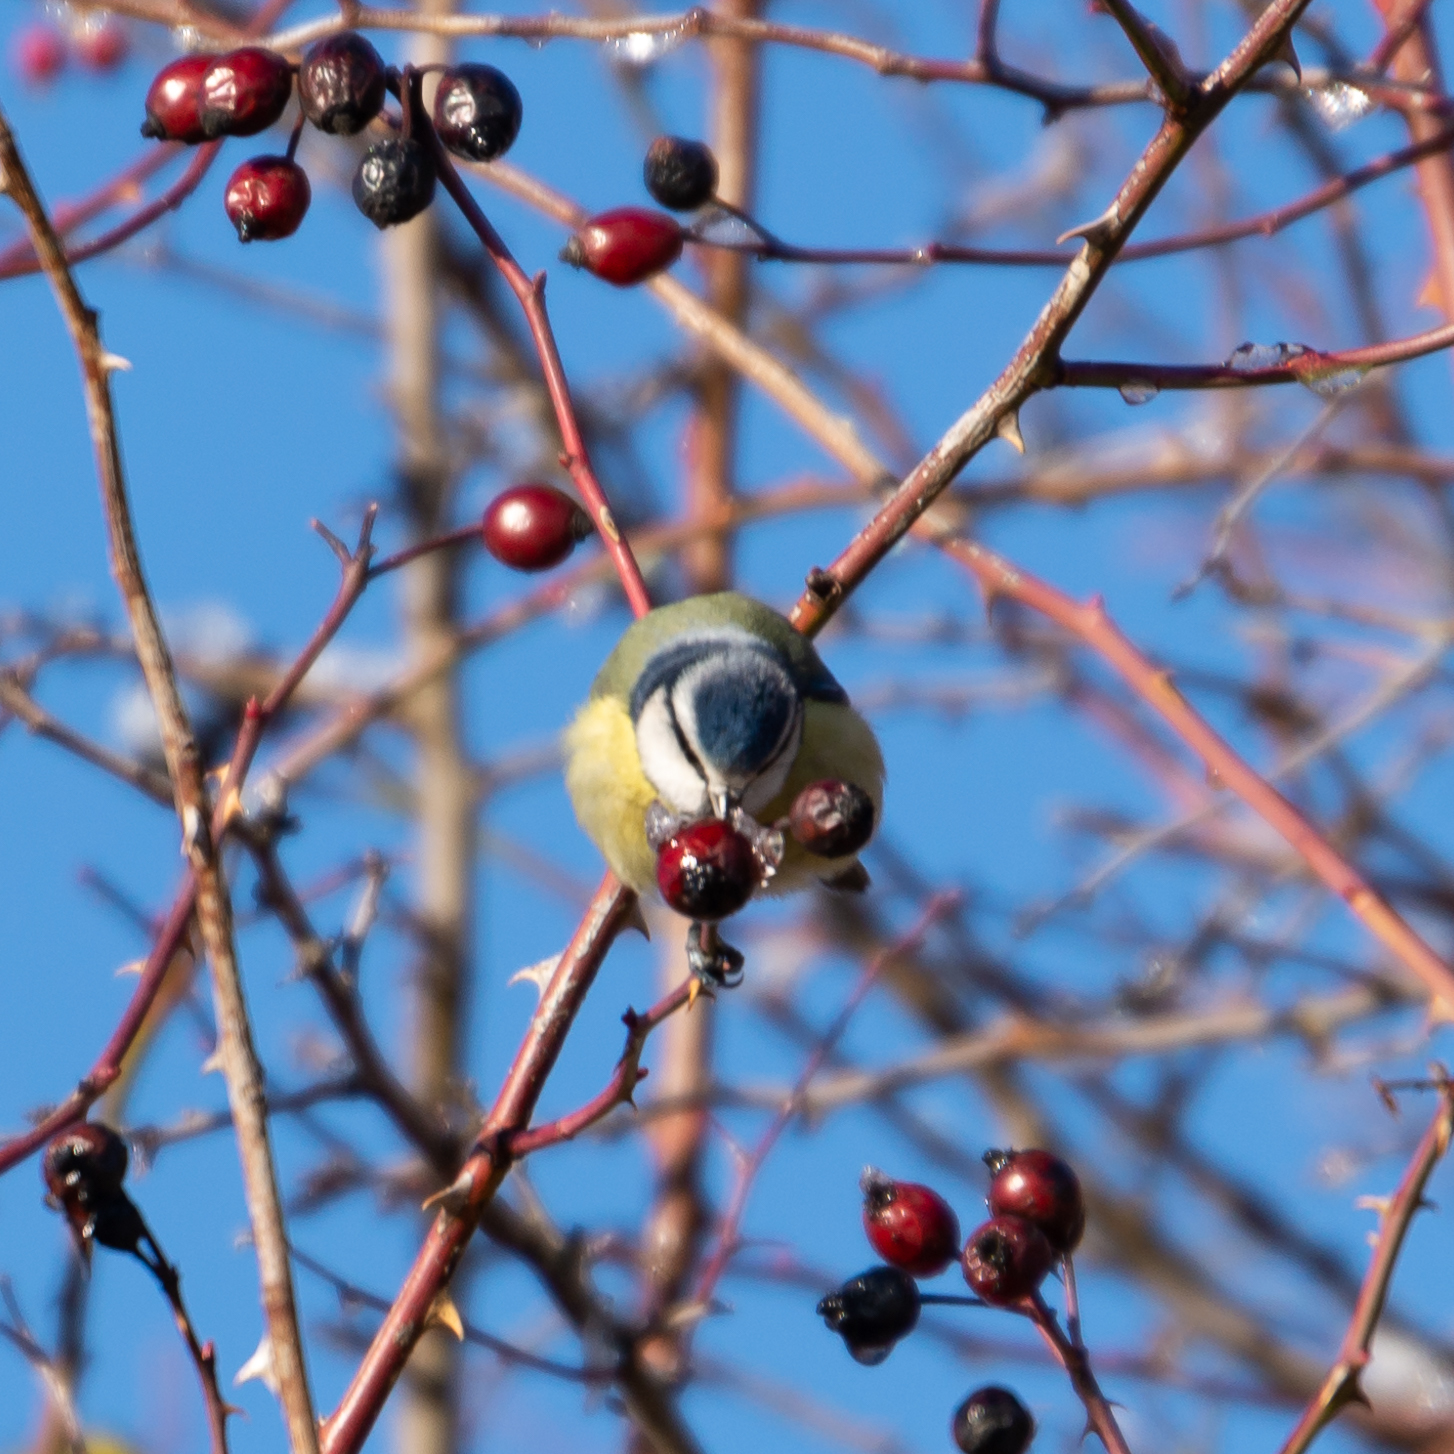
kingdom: Animalia
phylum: Chordata
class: Aves
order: Passeriformes
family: Paridae
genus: Cyanistes
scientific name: Cyanistes caeruleus
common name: Eurasian blue tit
